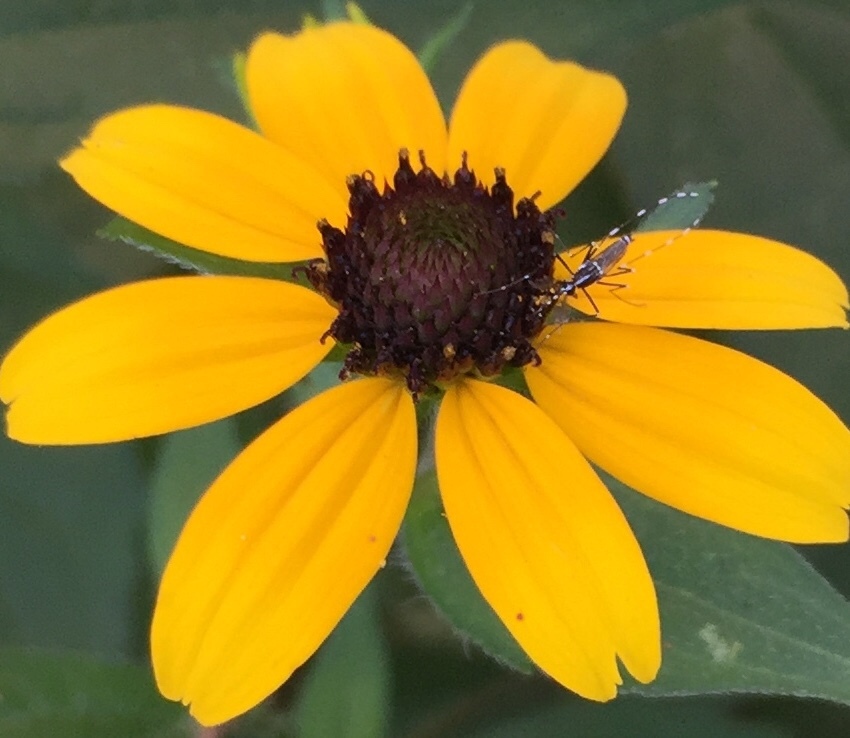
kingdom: Animalia
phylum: Arthropoda
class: Insecta
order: Diptera
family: Culicidae
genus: Aedes
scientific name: Aedes albopictus
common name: Tiger mosquito
